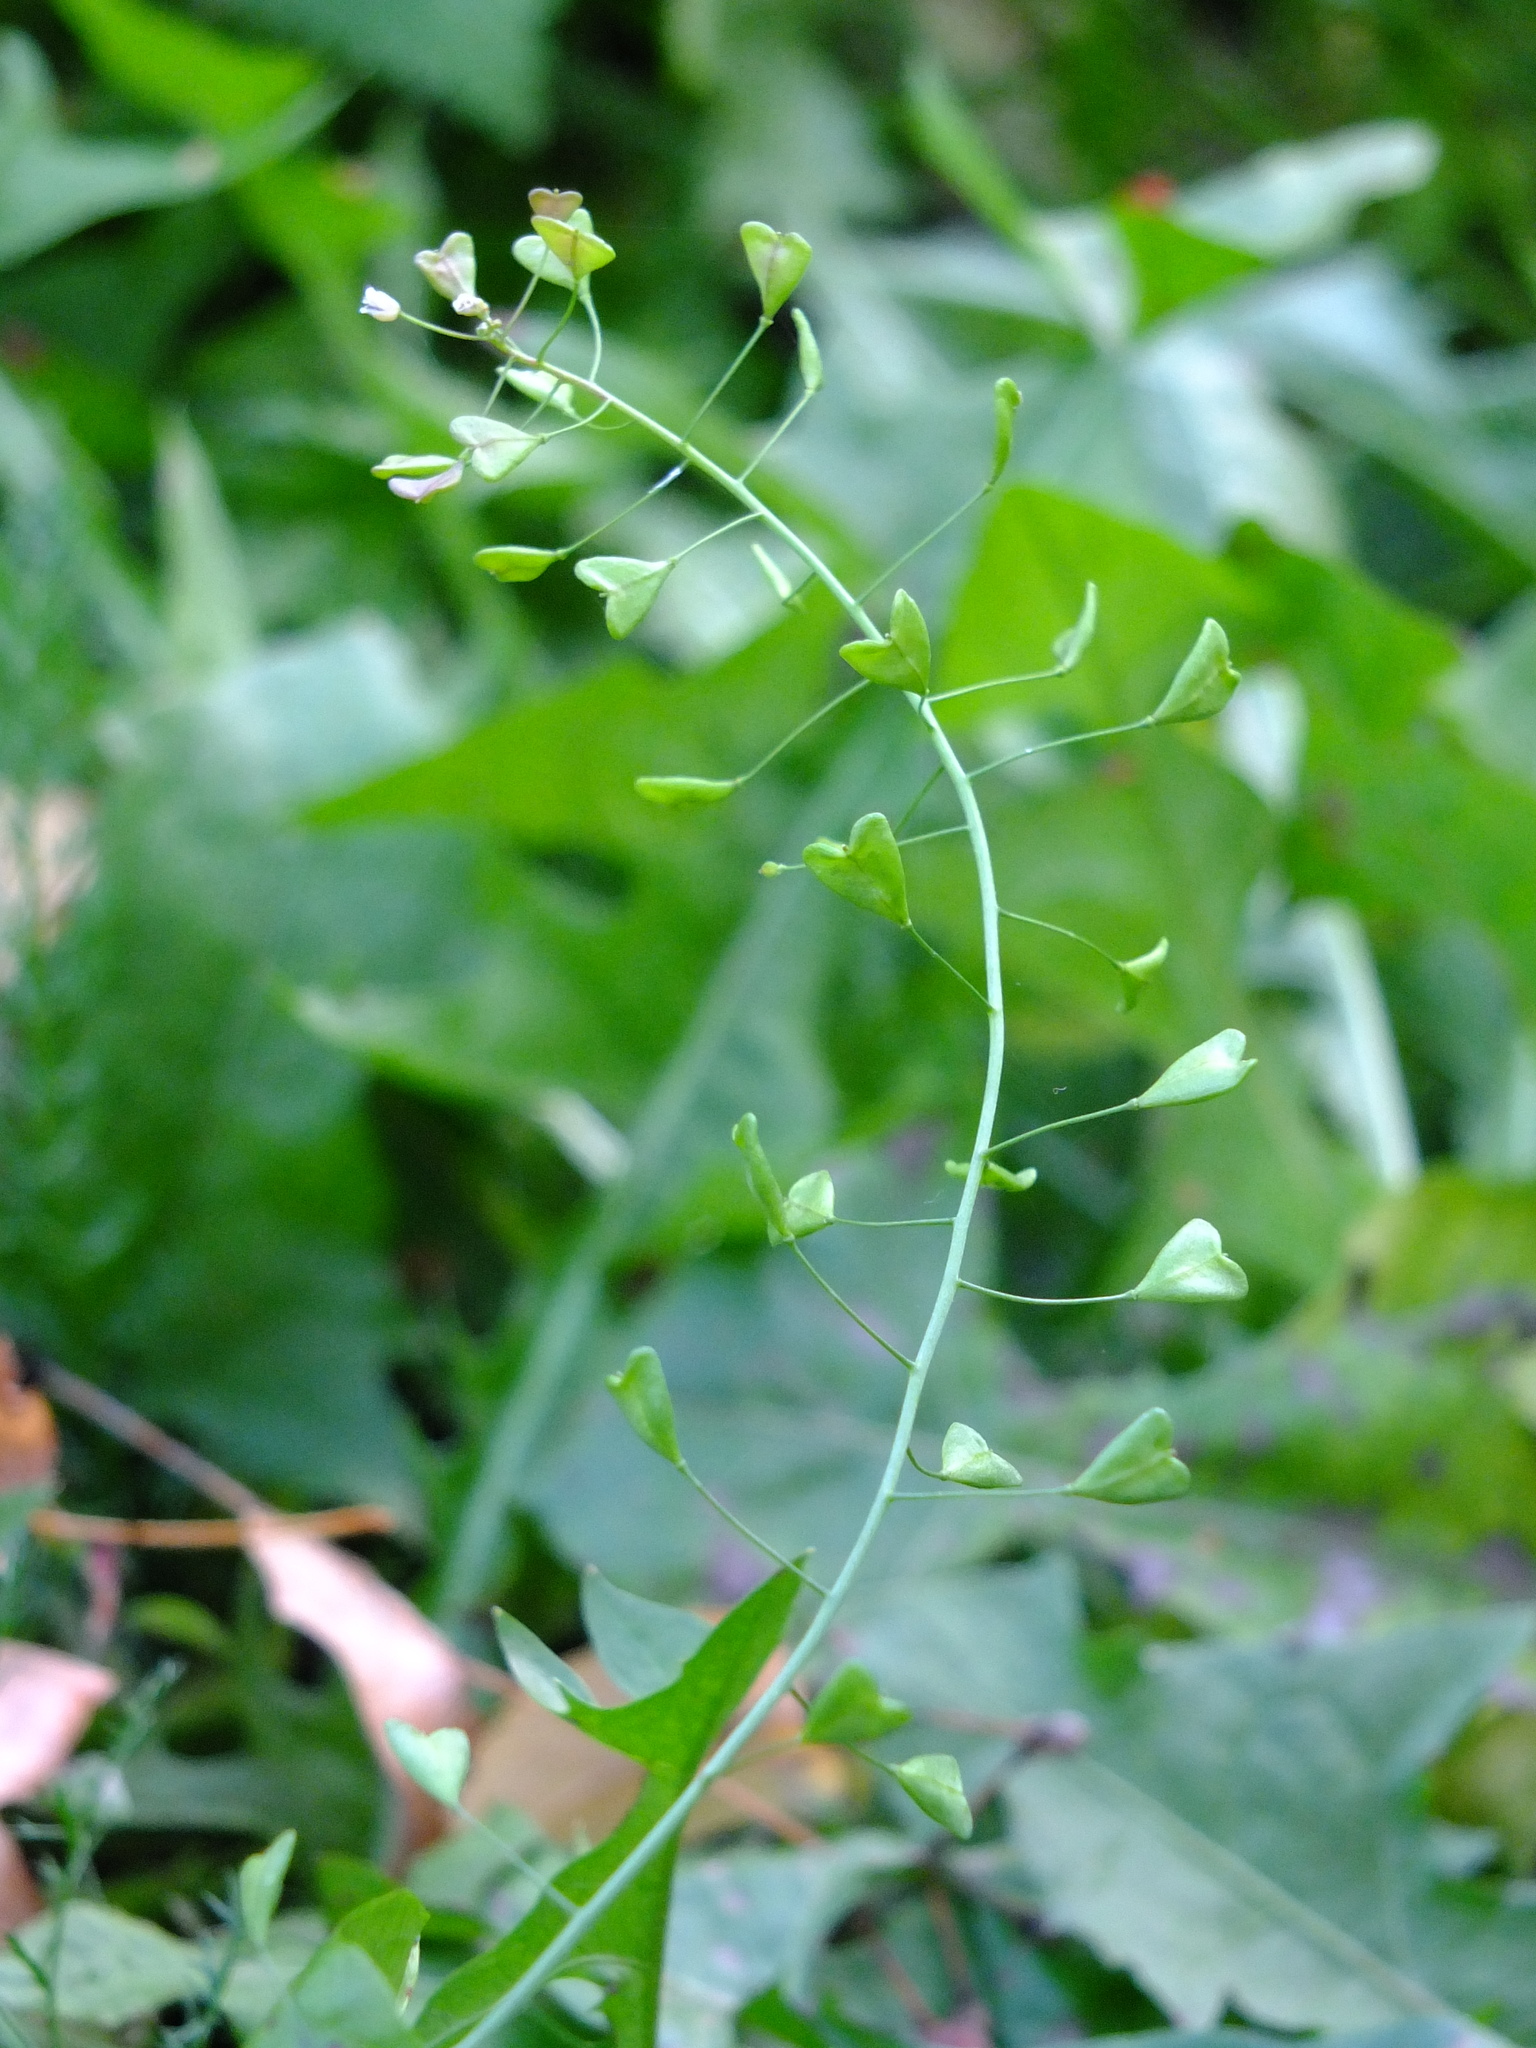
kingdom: Plantae
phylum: Tracheophyta
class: Magnoliopsida
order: Brassicales
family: Brassicaceae
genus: Capsella
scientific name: Capsella bursa-pastoris
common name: Shepherd's purse
